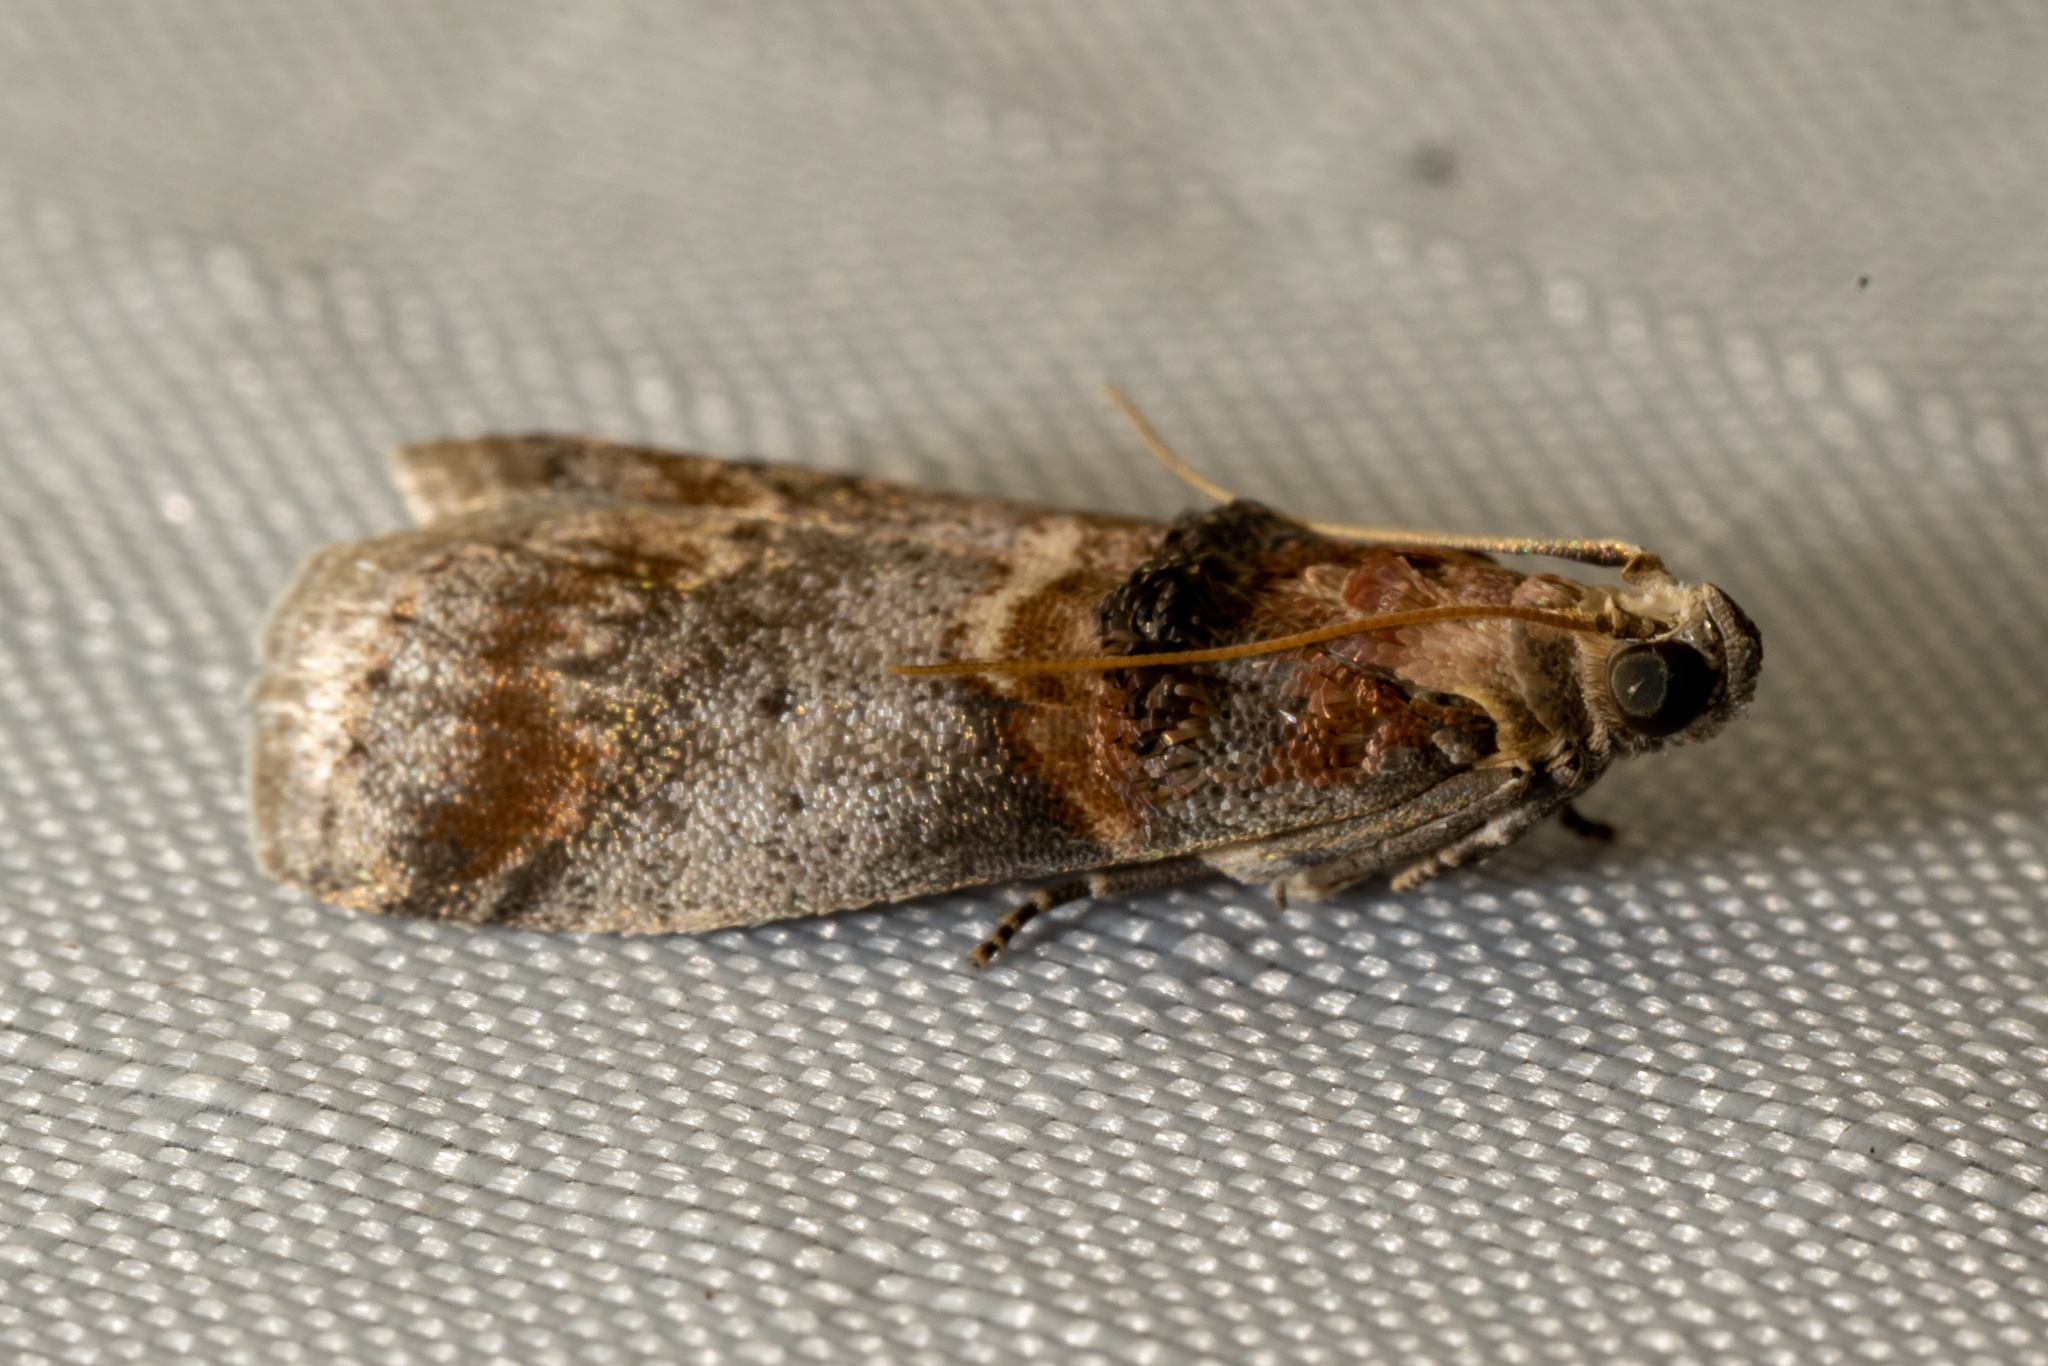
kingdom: Animalia
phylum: Arthropoda
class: Insecta
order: Lepidoptera
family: Pyralidae
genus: Acrobasis
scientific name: Acrobasis angusella
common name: Hickory leafstem borer moth
